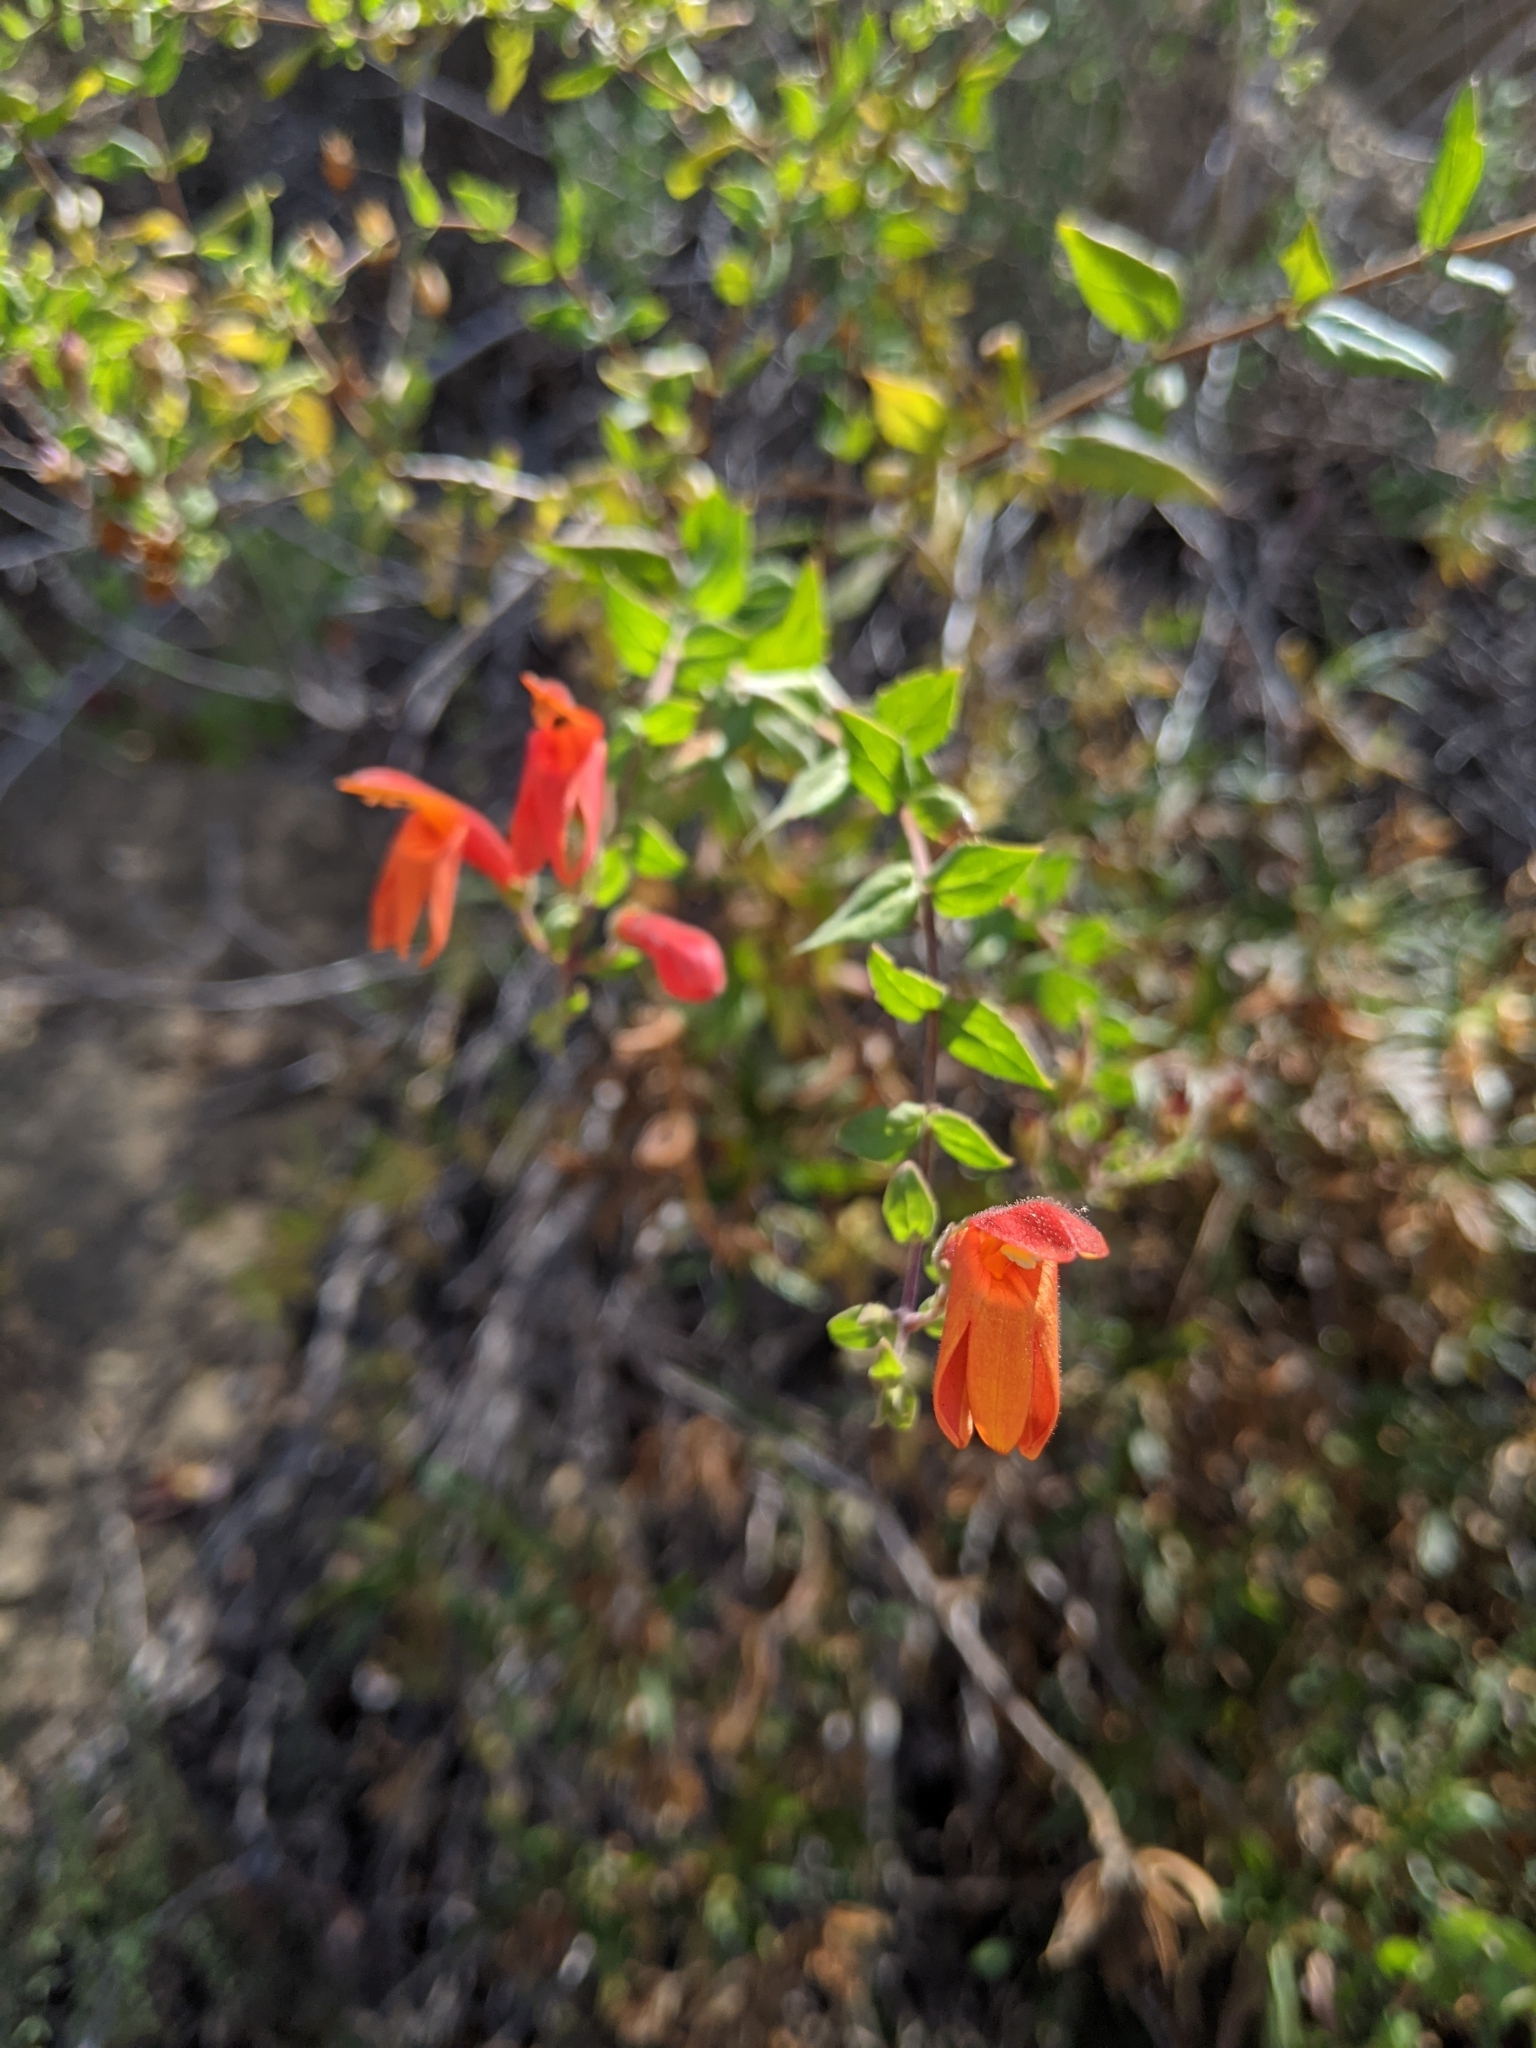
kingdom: Plantae
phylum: Tracheophyta
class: Magnoliopsida
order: Lamiales
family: Plantaginaceae
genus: Keckiella
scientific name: Keckiella cordifolia
